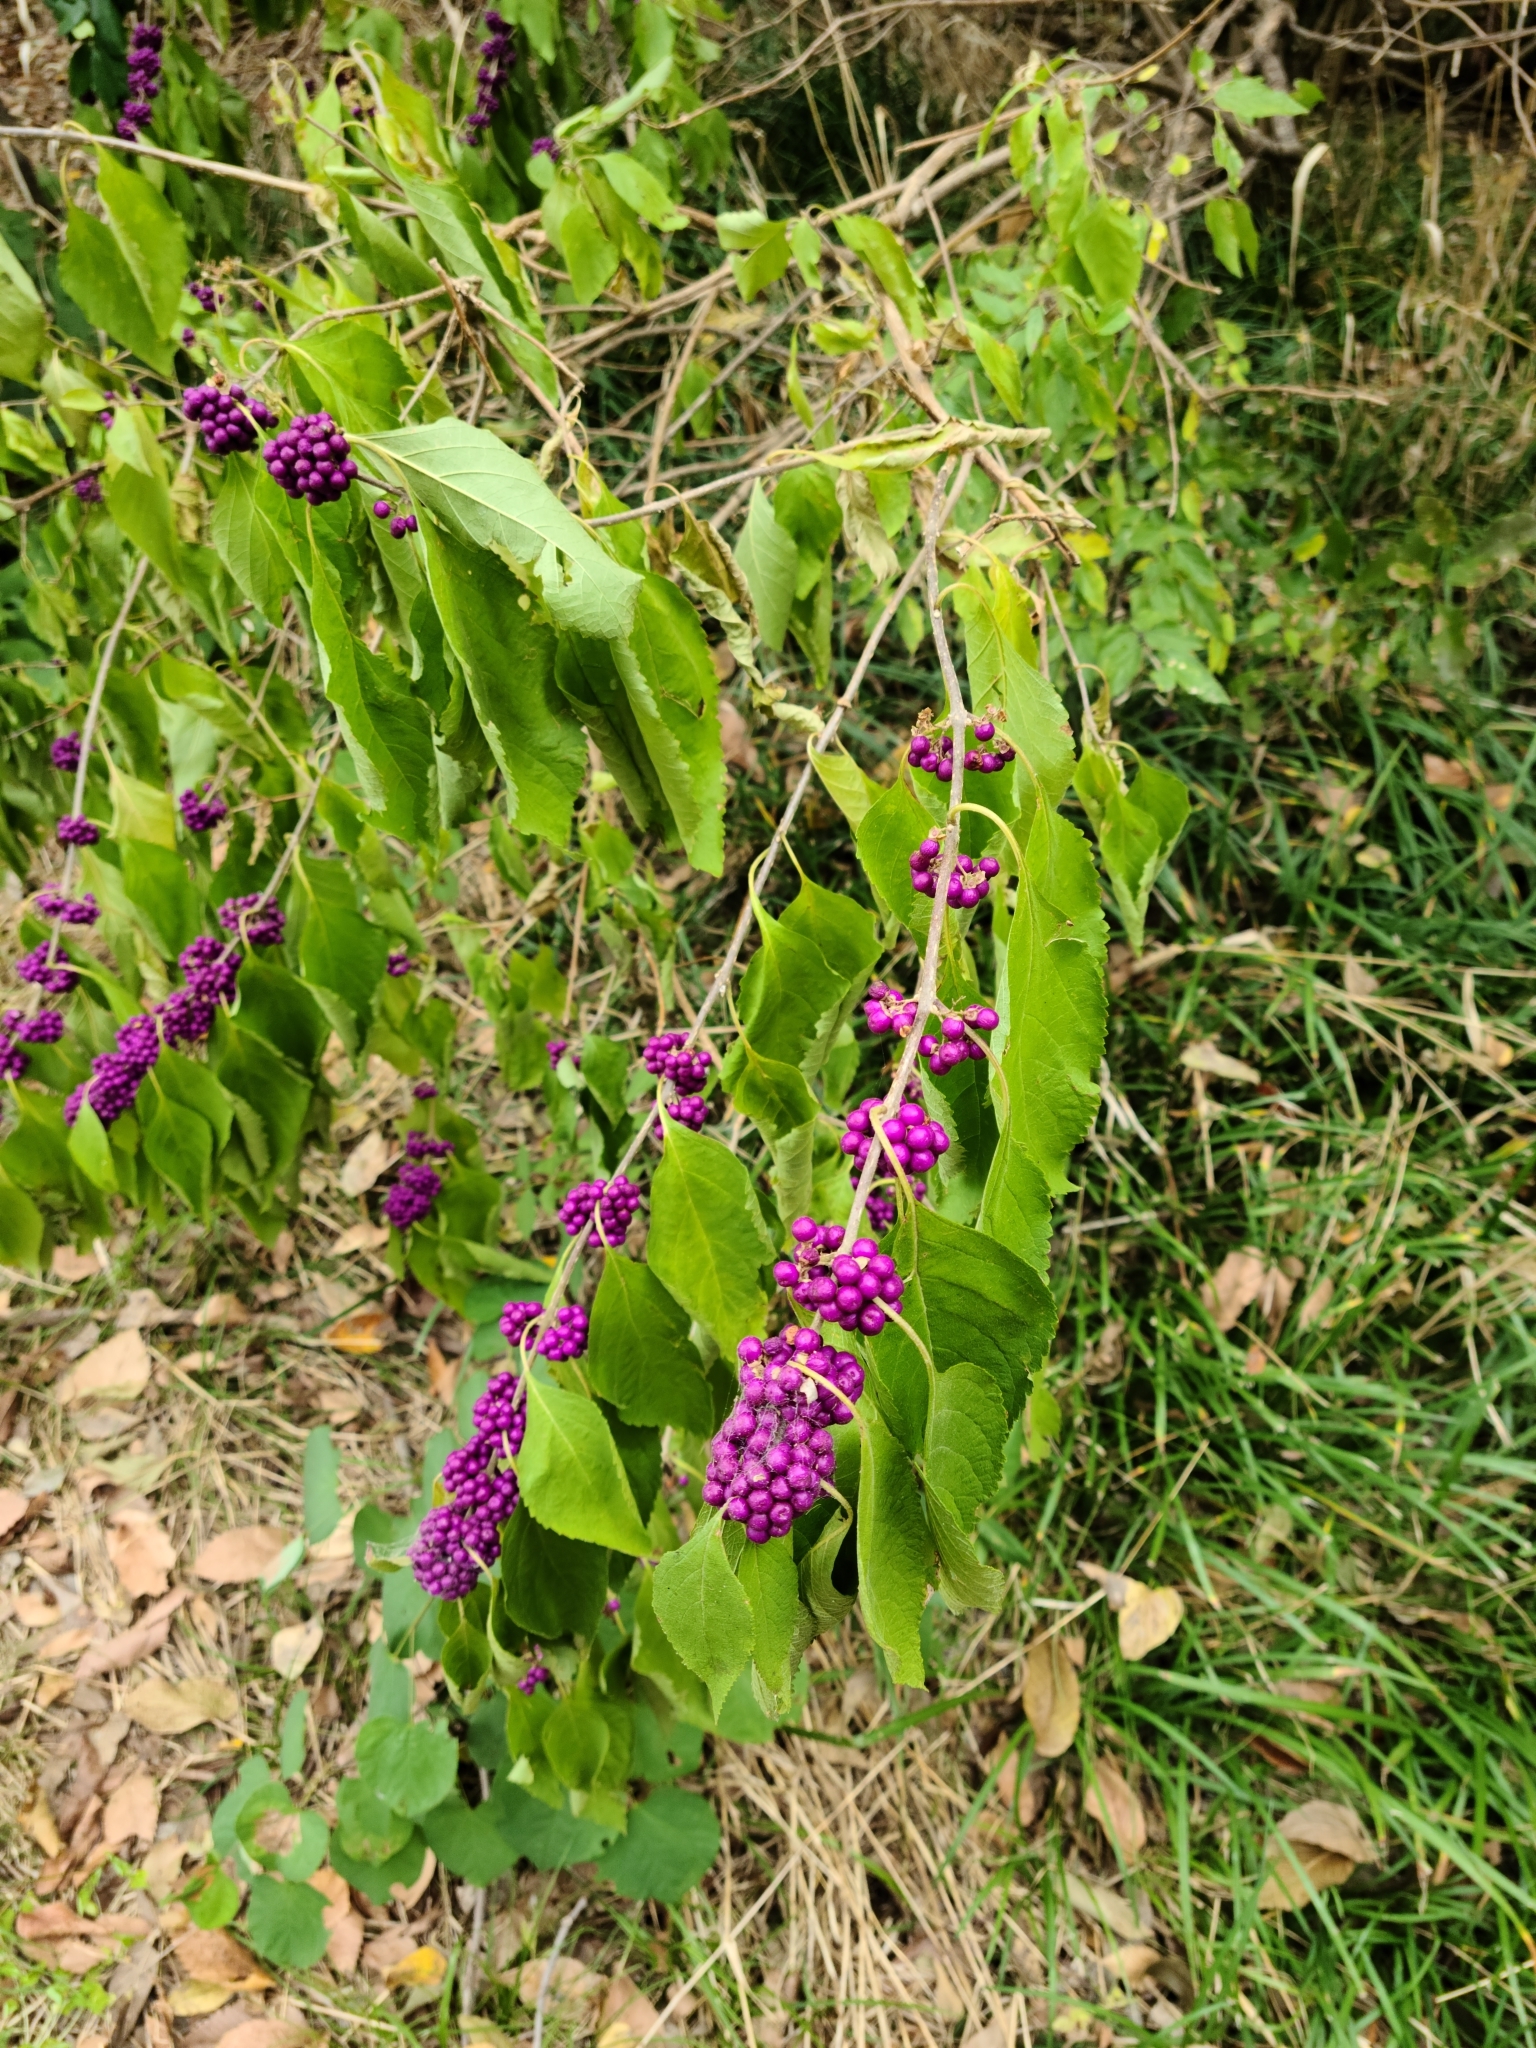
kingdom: Plantae
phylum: Tracheophyta
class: Magnoliopsida
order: Lamiales
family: Lamiaceae
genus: Callicarpa
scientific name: Callicarpa americana
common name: American beautyberry
